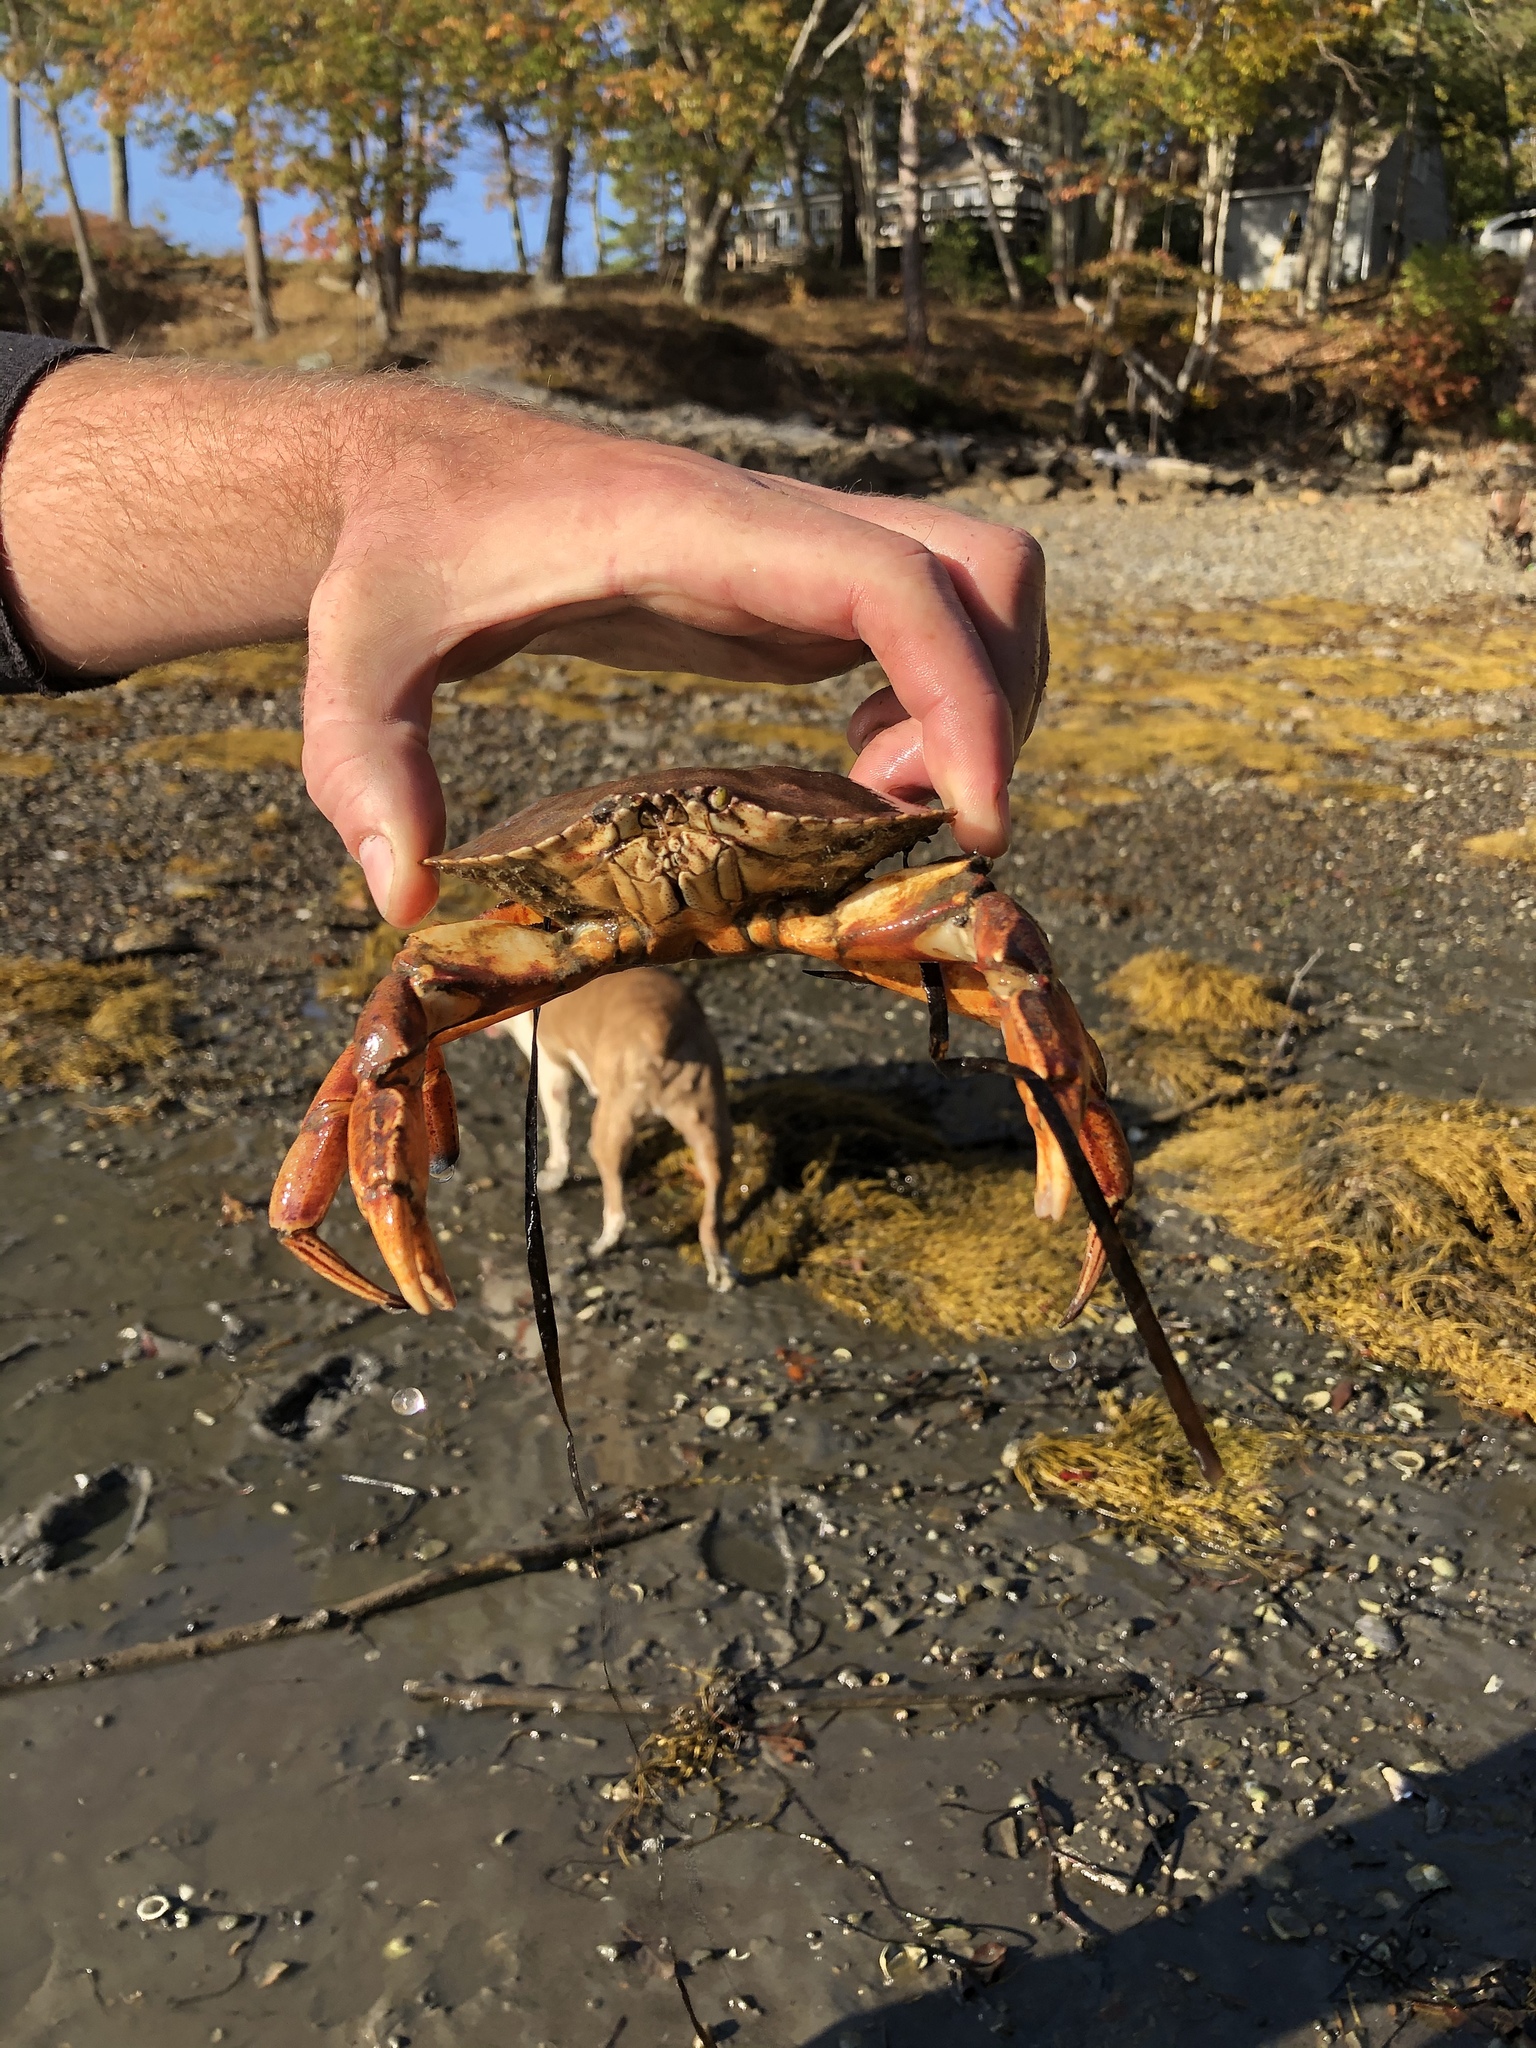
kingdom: Animalia
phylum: Arthropoda
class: Malacostraca
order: Decapoda
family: Cancridae
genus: Cancer
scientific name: Cancer irroratus
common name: Atlantic rock crab
